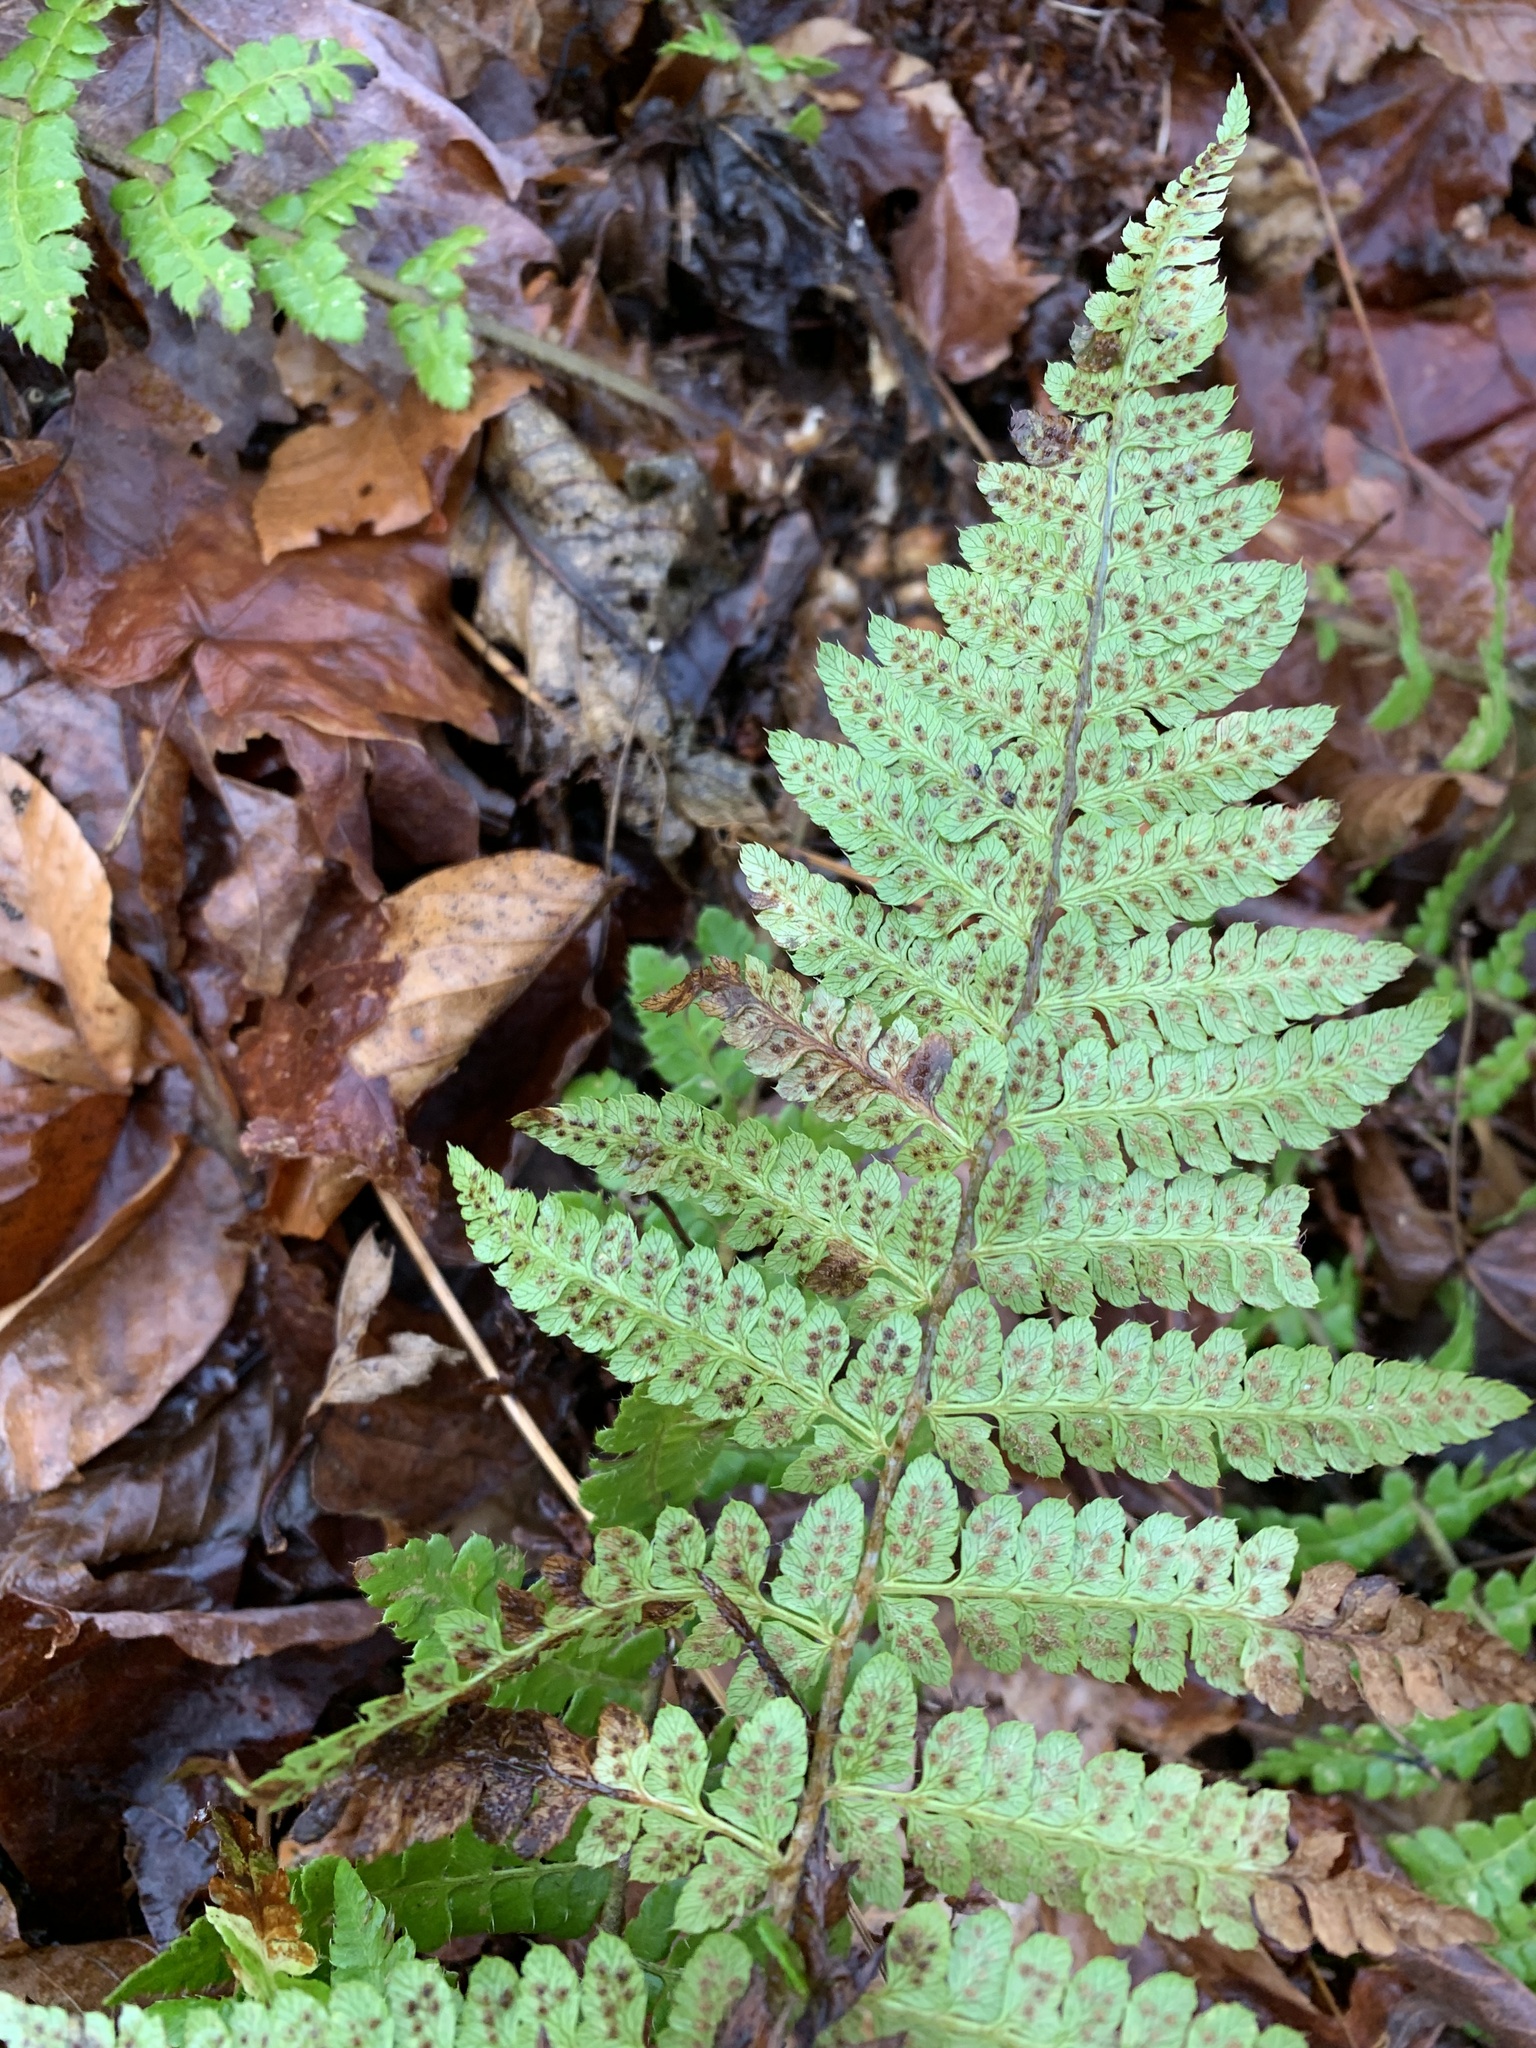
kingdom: Plantae
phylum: Tracheophyta
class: Polypodiopsida
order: Polypodiales
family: Dryopteridaceae
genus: Polystichum
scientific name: Polystichum braunii
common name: Braun's holly fern
